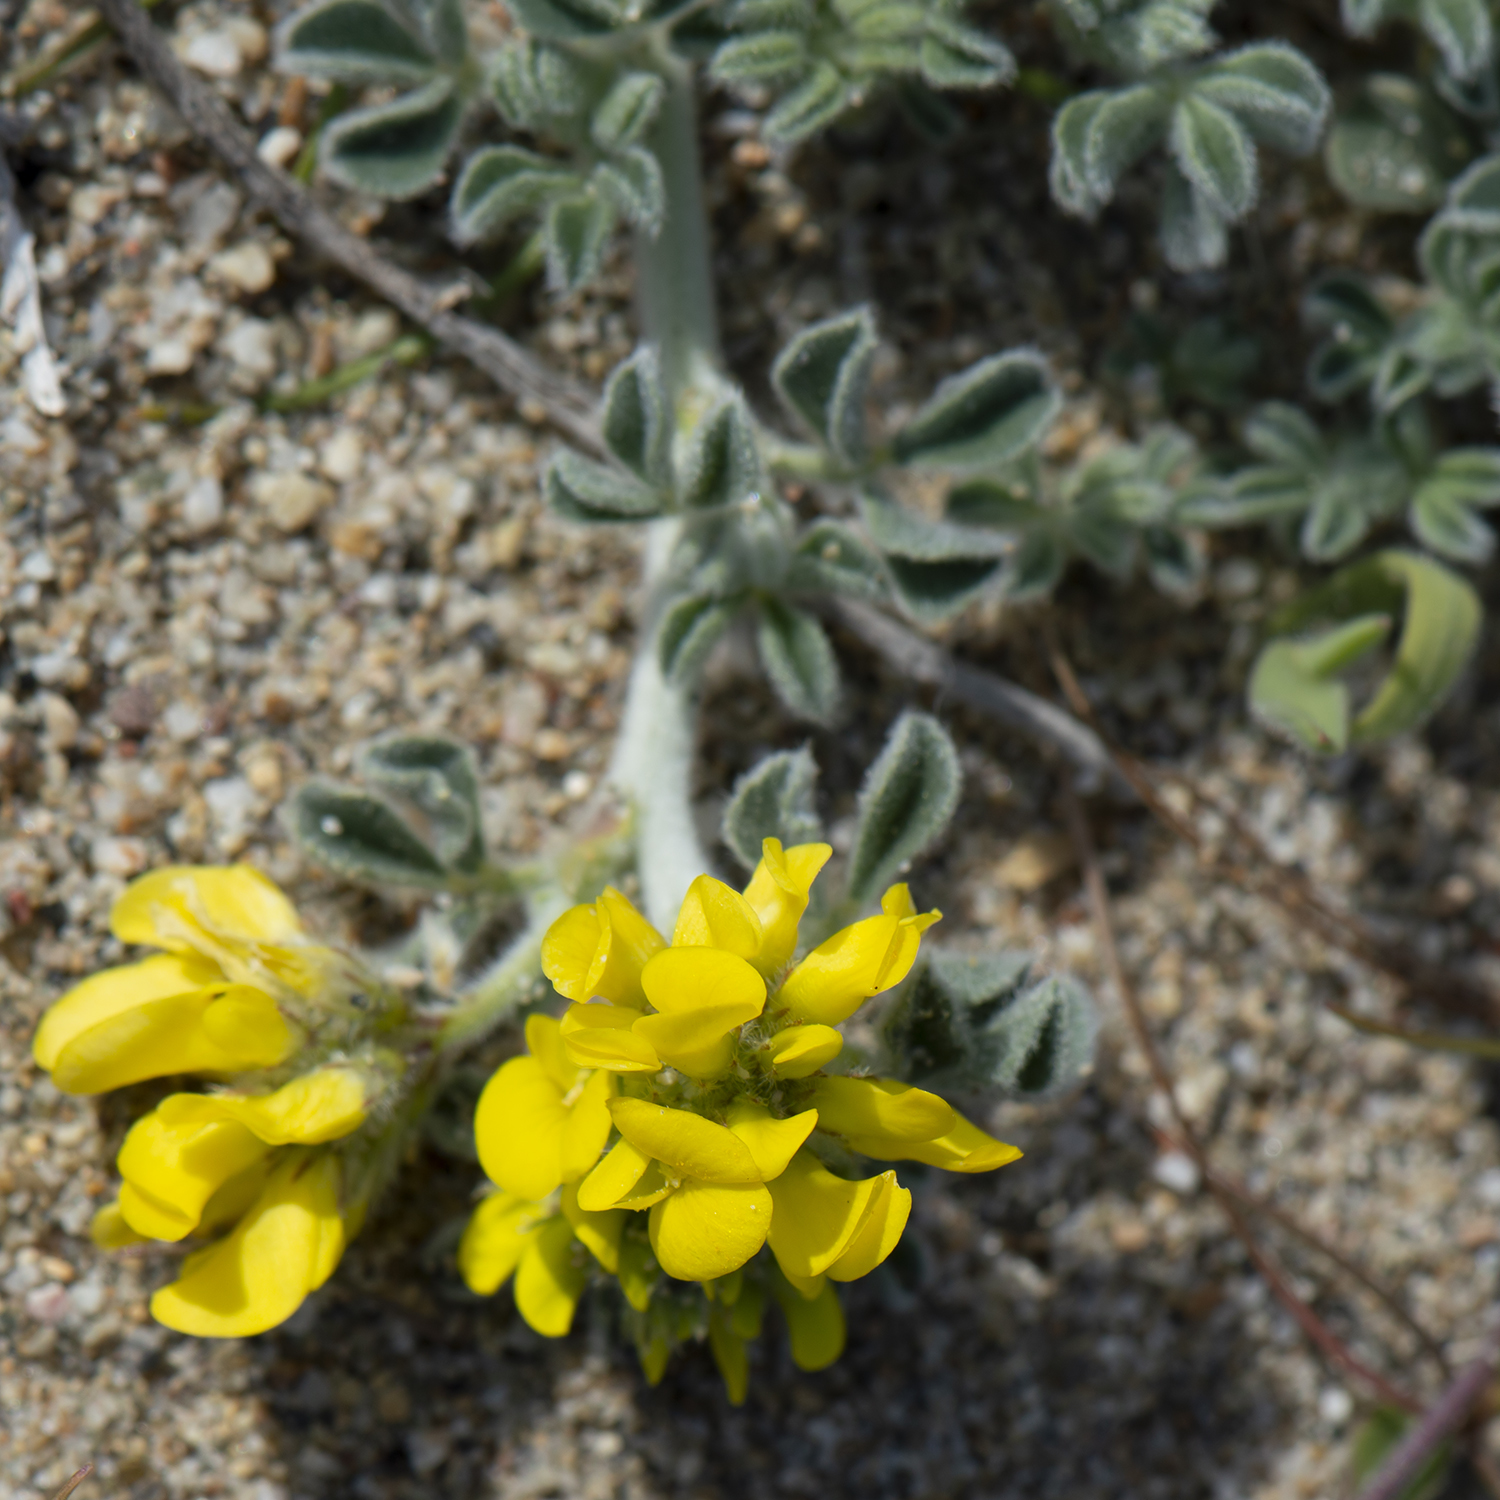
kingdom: Plantae
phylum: Tracheophyta
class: Magnoliopsida
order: Fabales
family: Fabaceae
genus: Medicago
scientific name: Medicago marina
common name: Sea medick
